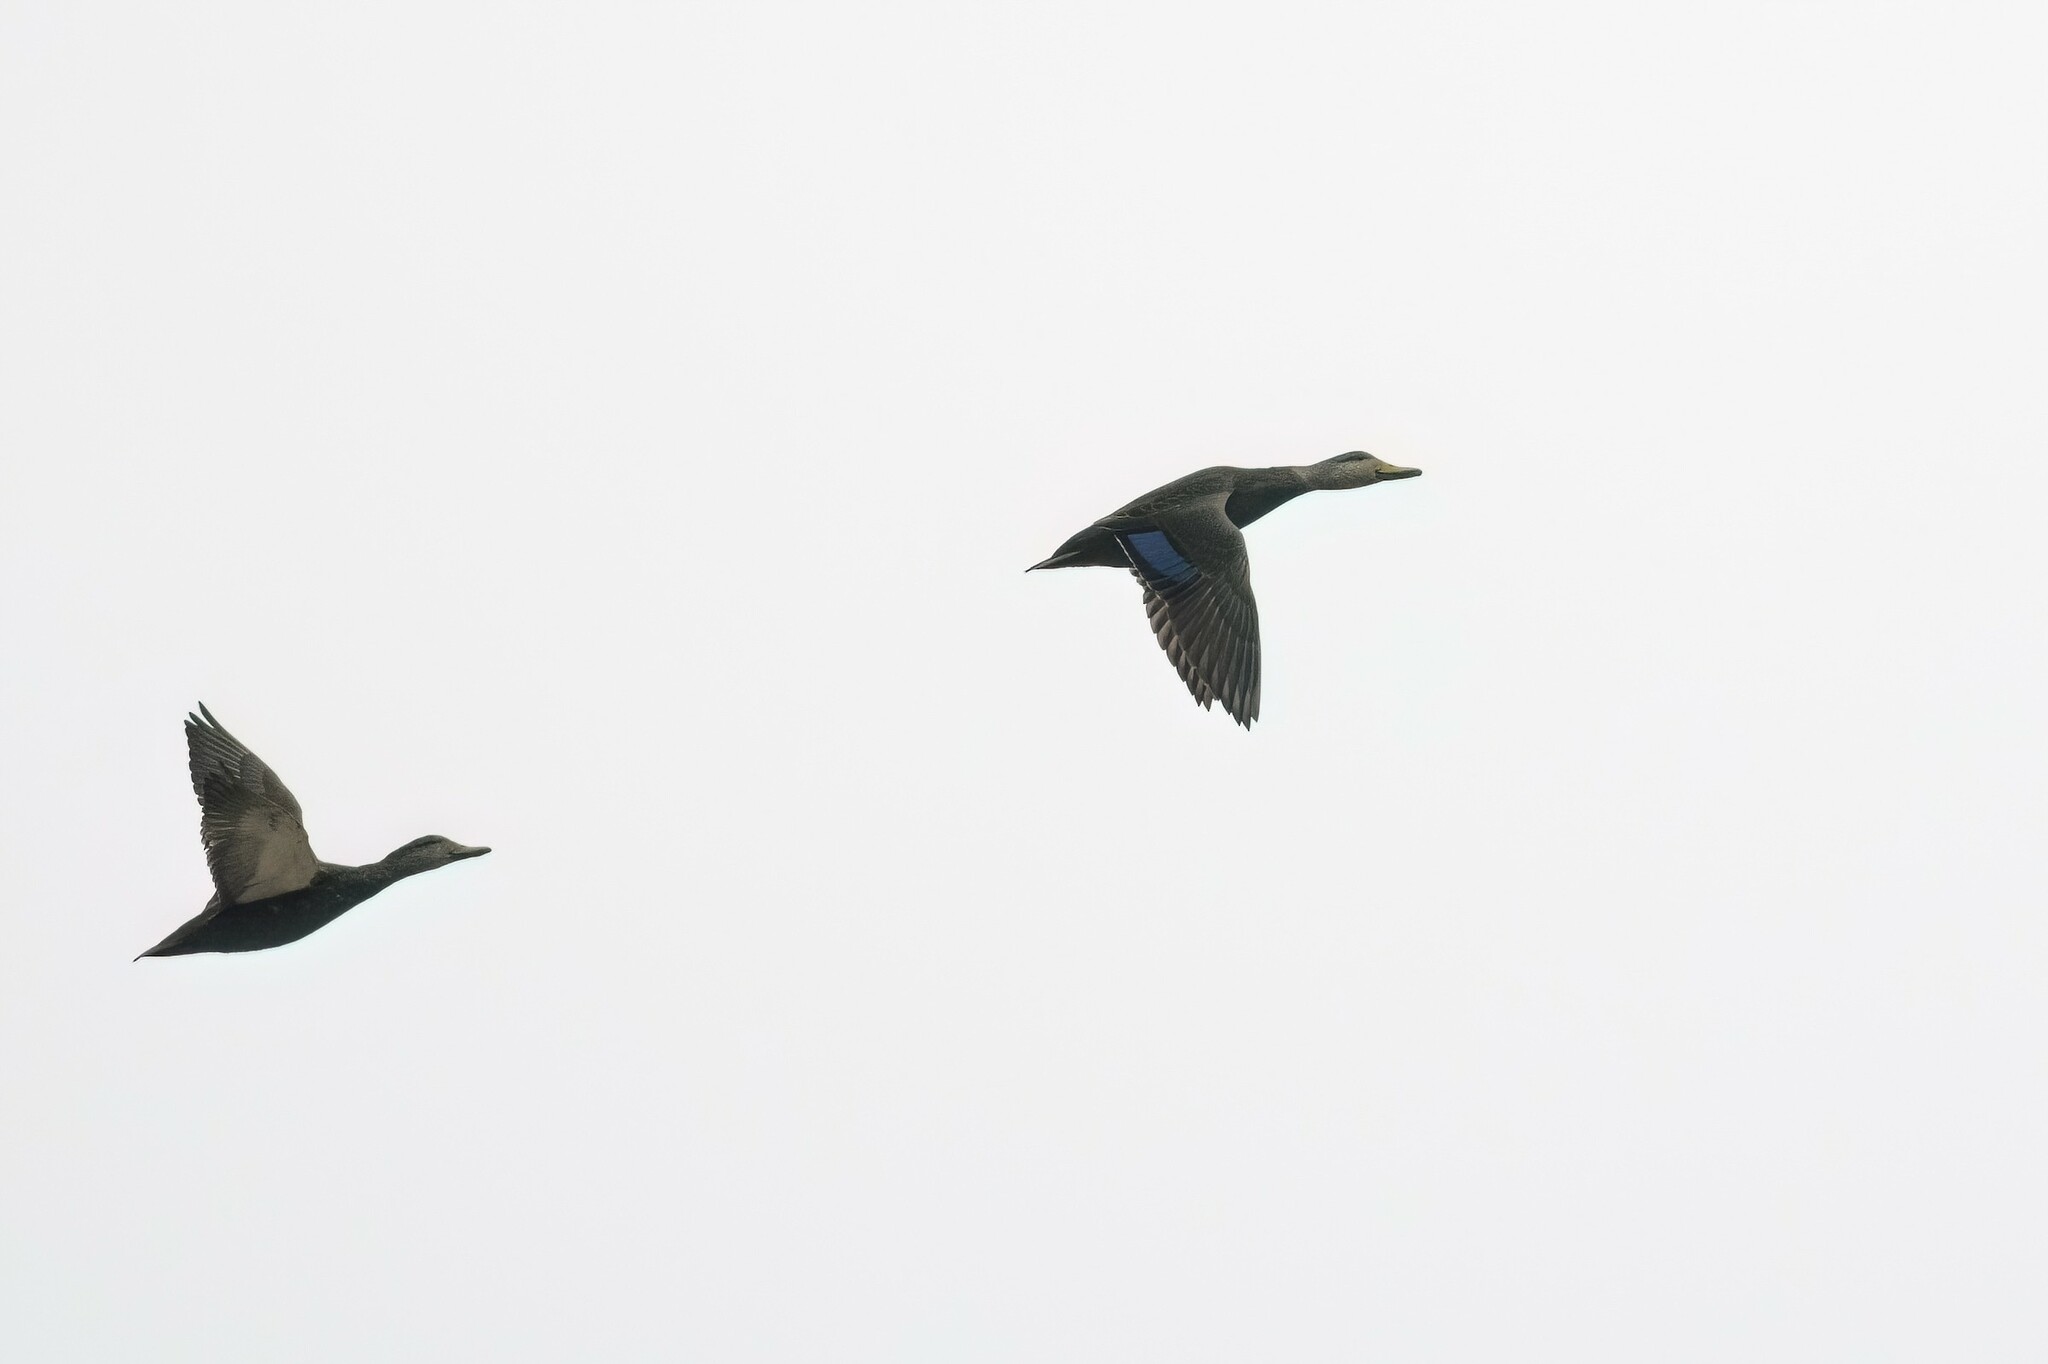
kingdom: Animalia
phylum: Chordata
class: Aves
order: Anseriformes
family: Anatidae
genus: Anas
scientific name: Anas rubripes
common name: American black duck
